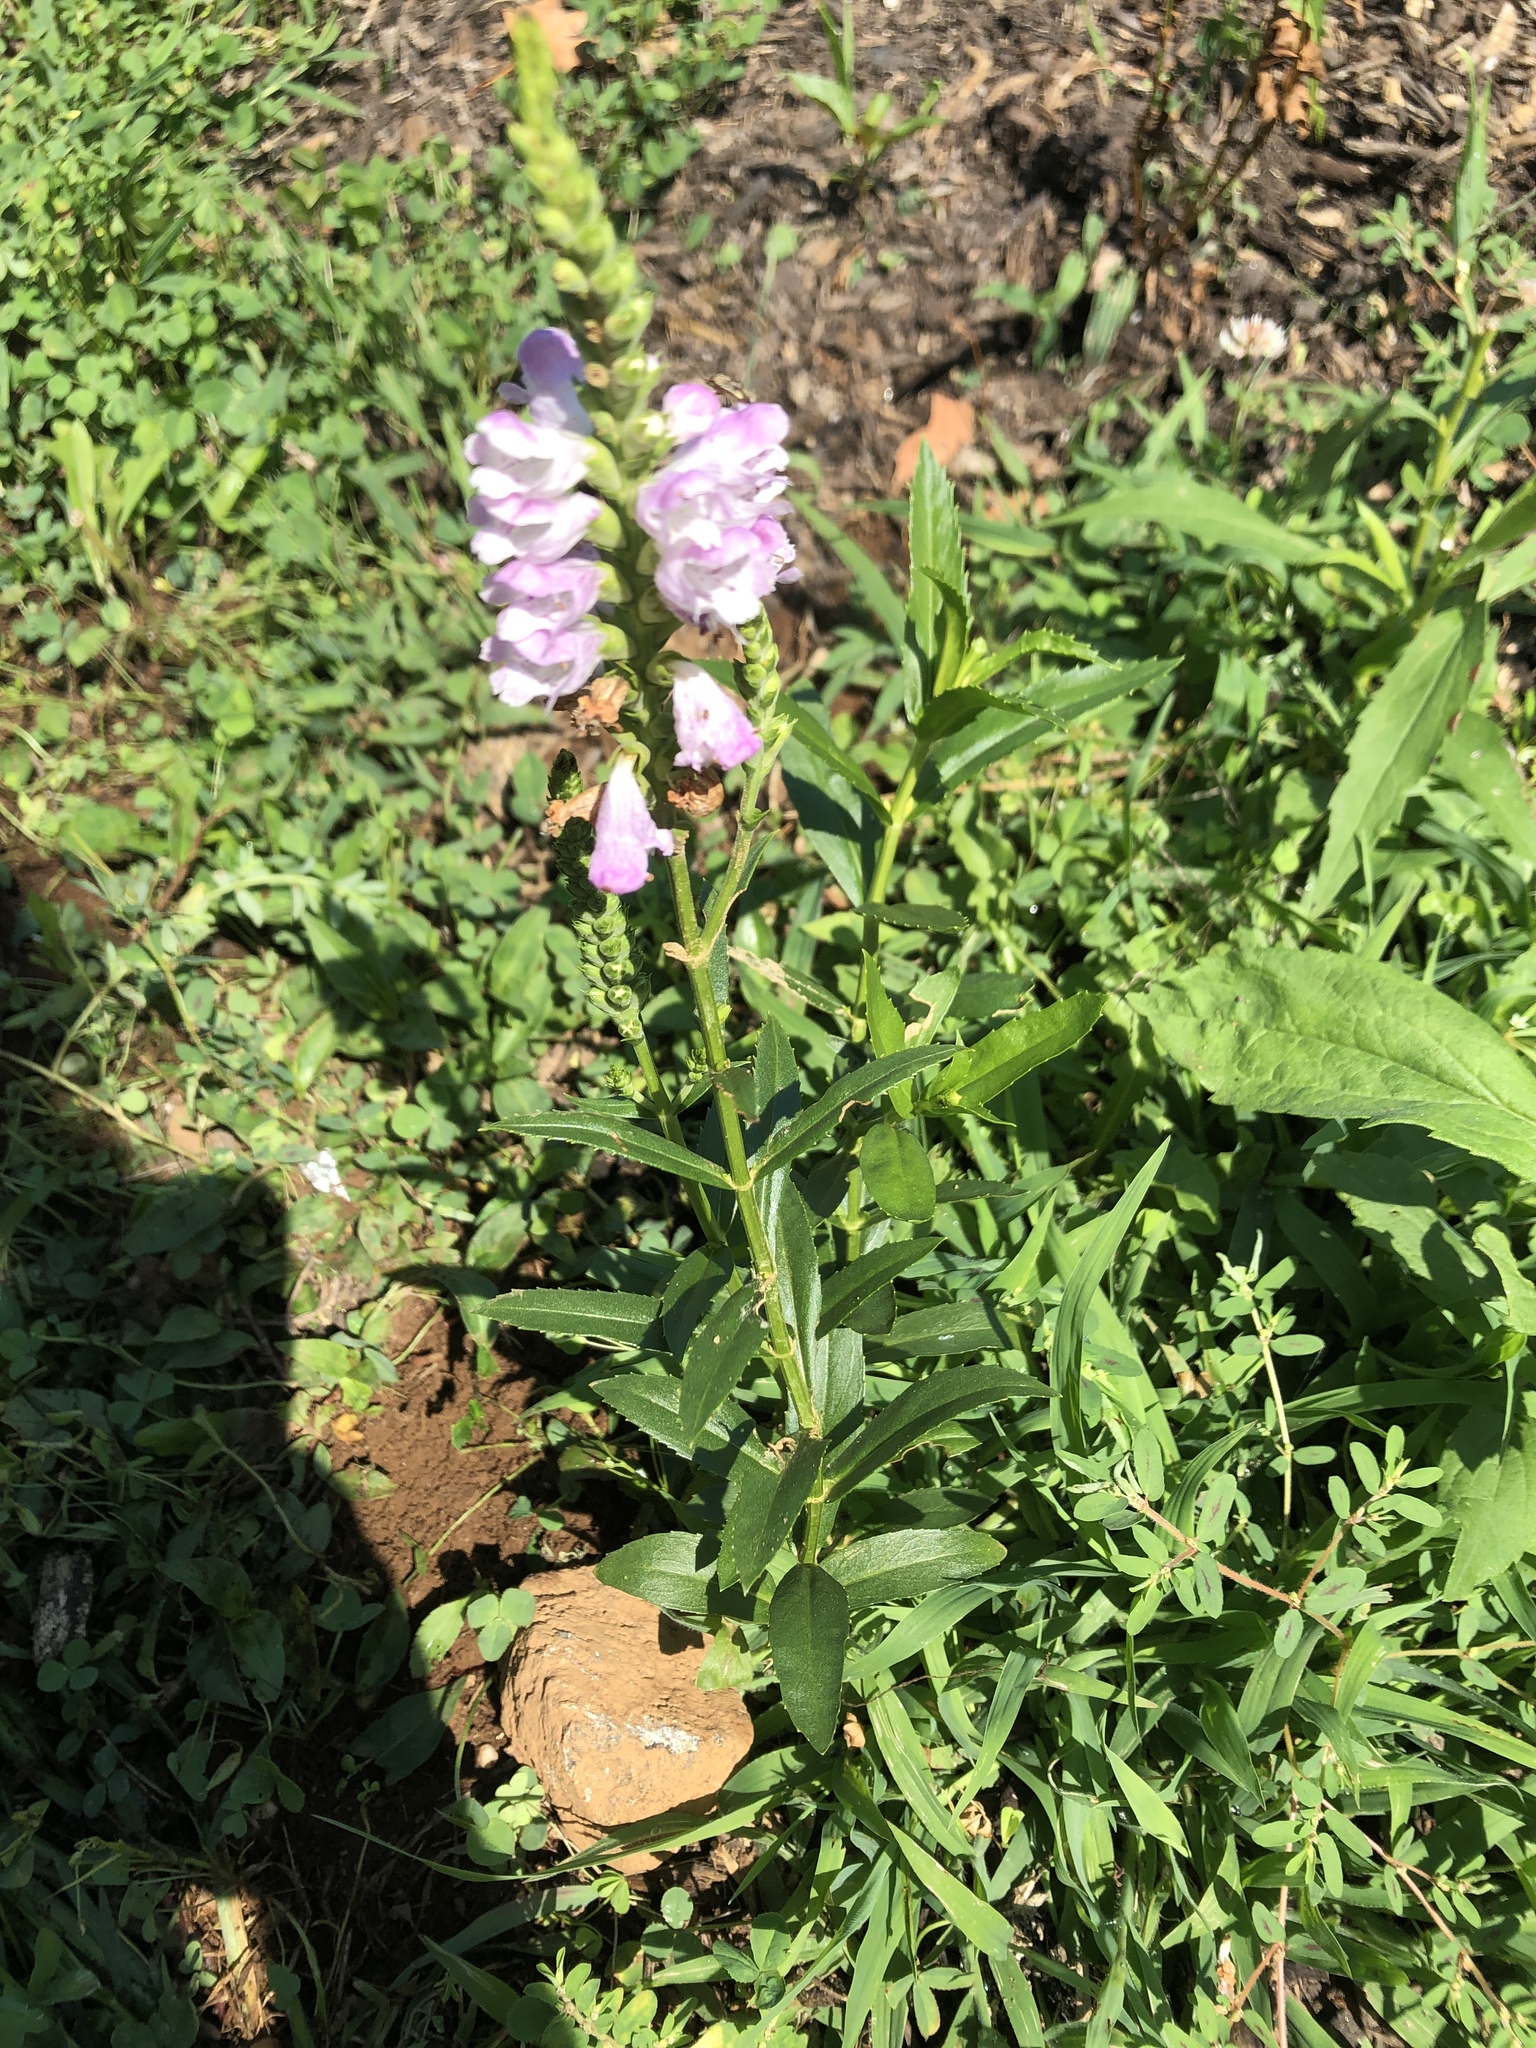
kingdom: Plantae
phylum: Tracheophyta
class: Magnoliopsida
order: Lamiales
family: Lamiaceae
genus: Physostegia
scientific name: Physostegia virginiana
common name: Obedient-plant
